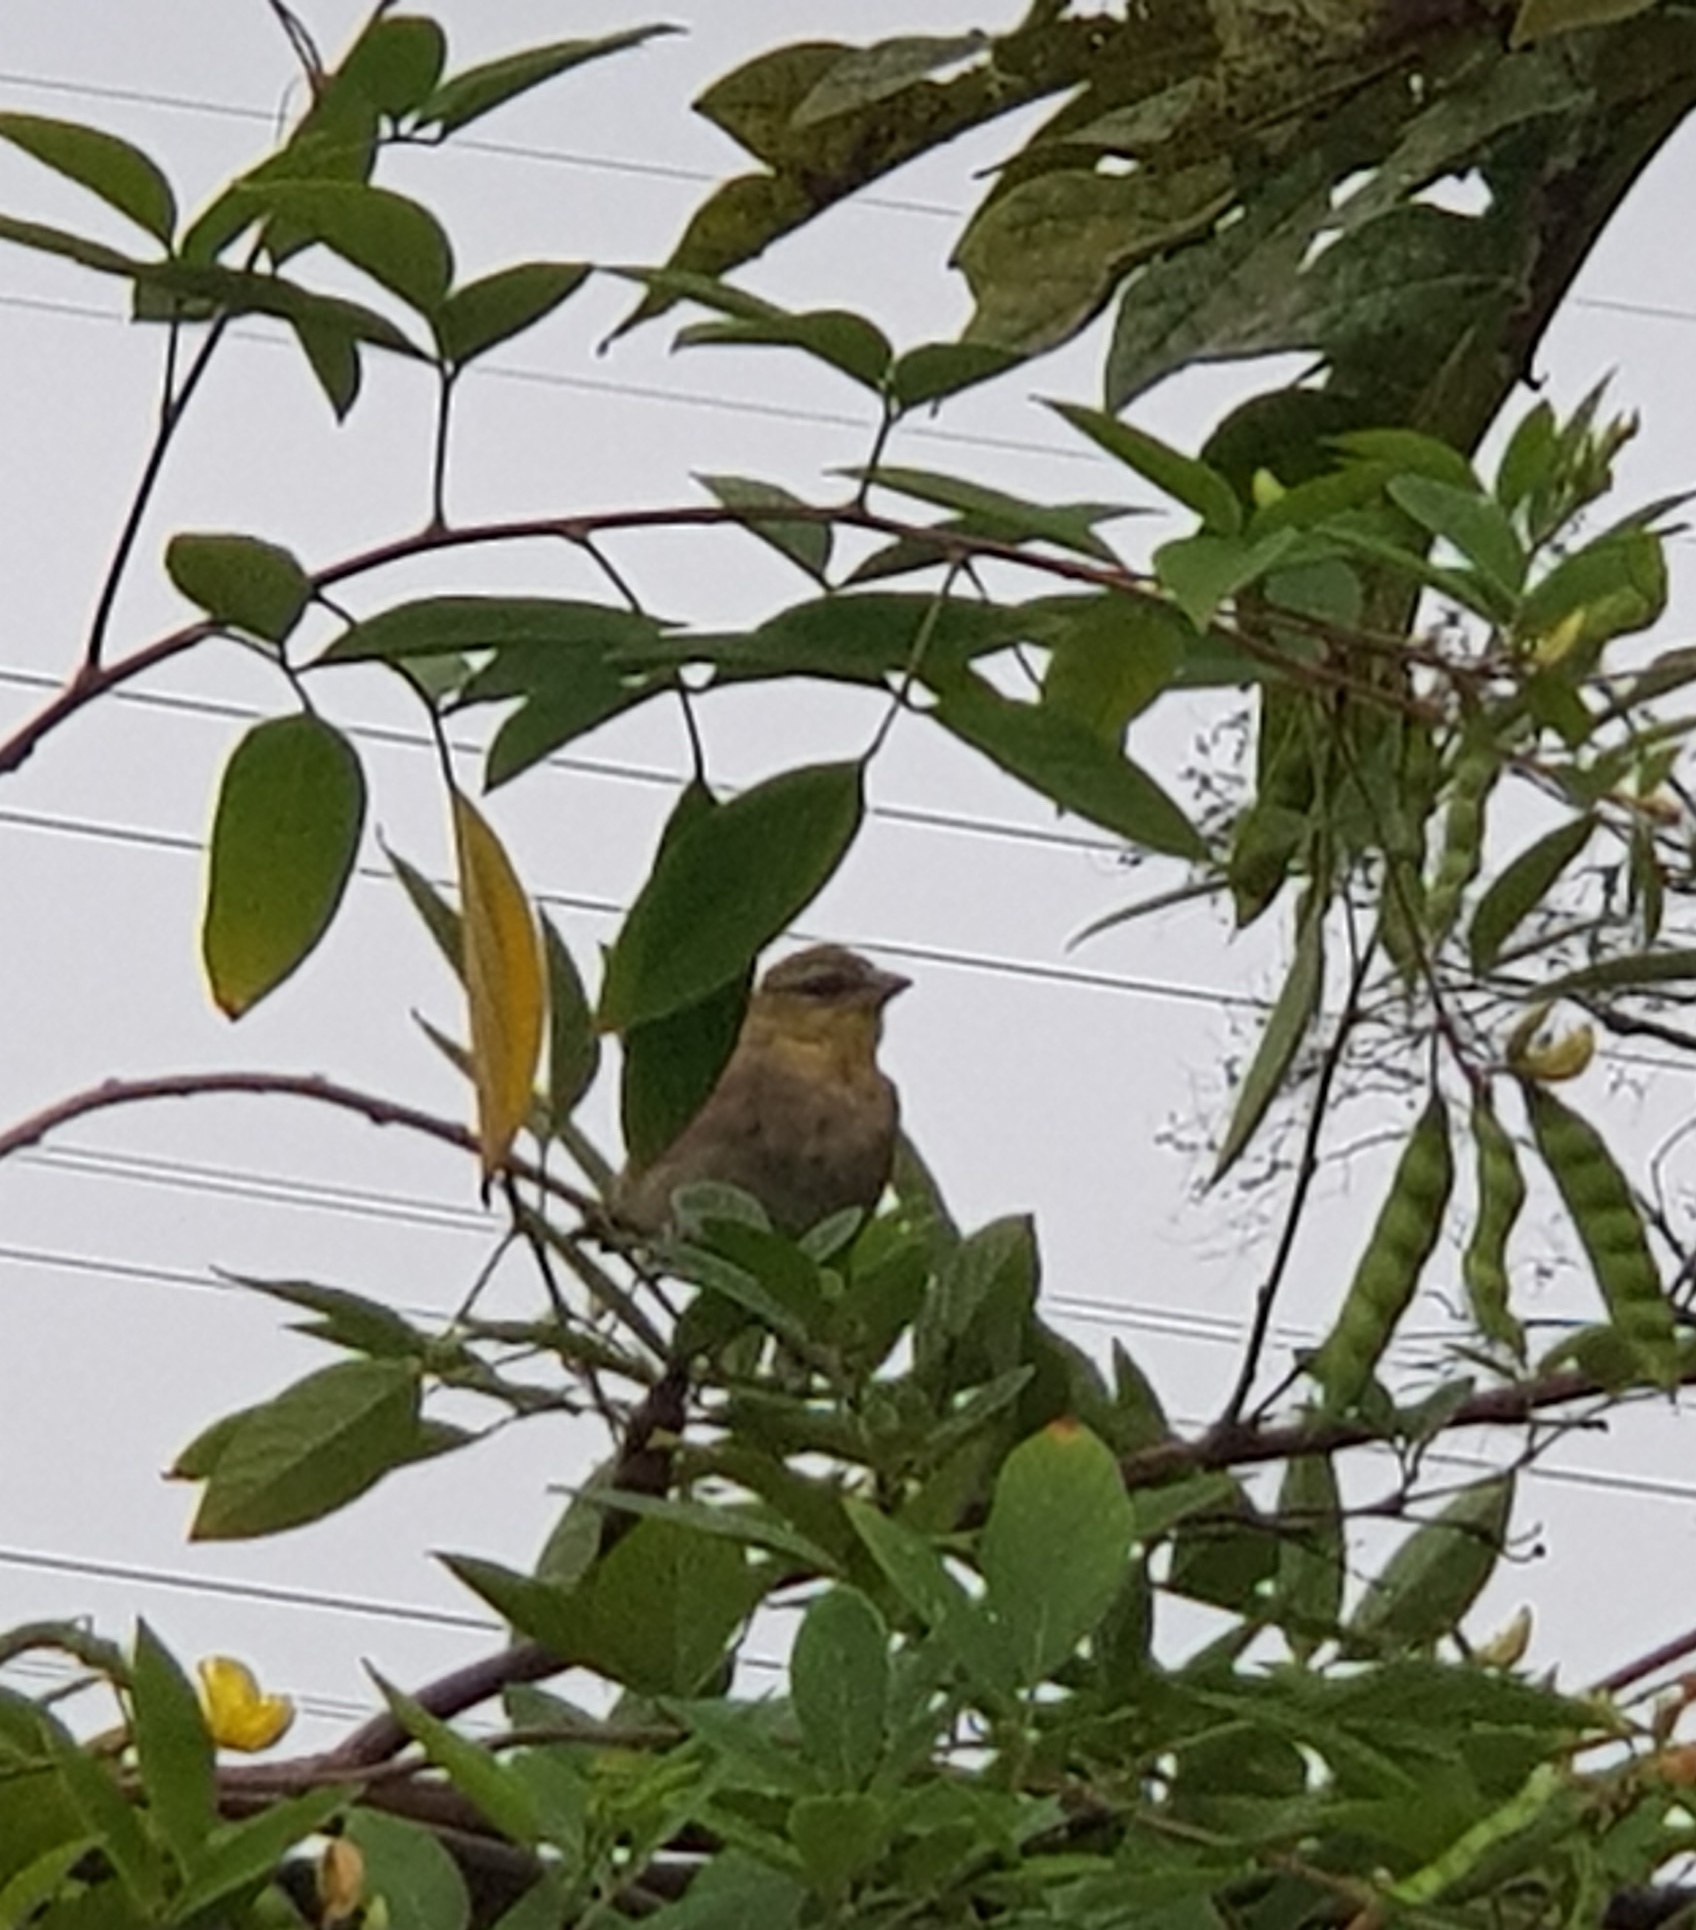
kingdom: Animalia
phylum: Chordata
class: Aves
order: Passeriformes
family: Ploceidae
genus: Ploceus
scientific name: Ploceus cucullatus
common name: Village weaver
